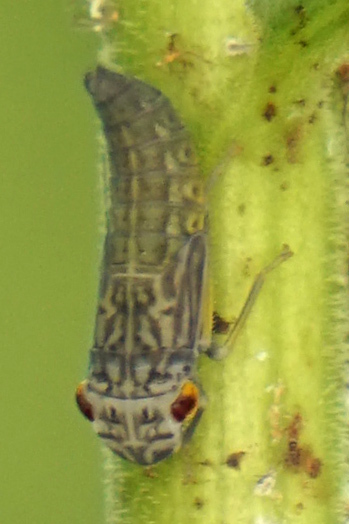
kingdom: Animalia
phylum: Arthropoda
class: Insecta
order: Hemiptera
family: Cicadellidae
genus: Oncometopia
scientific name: Oncometopia orbona
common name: Broad-headed sharpshooter
